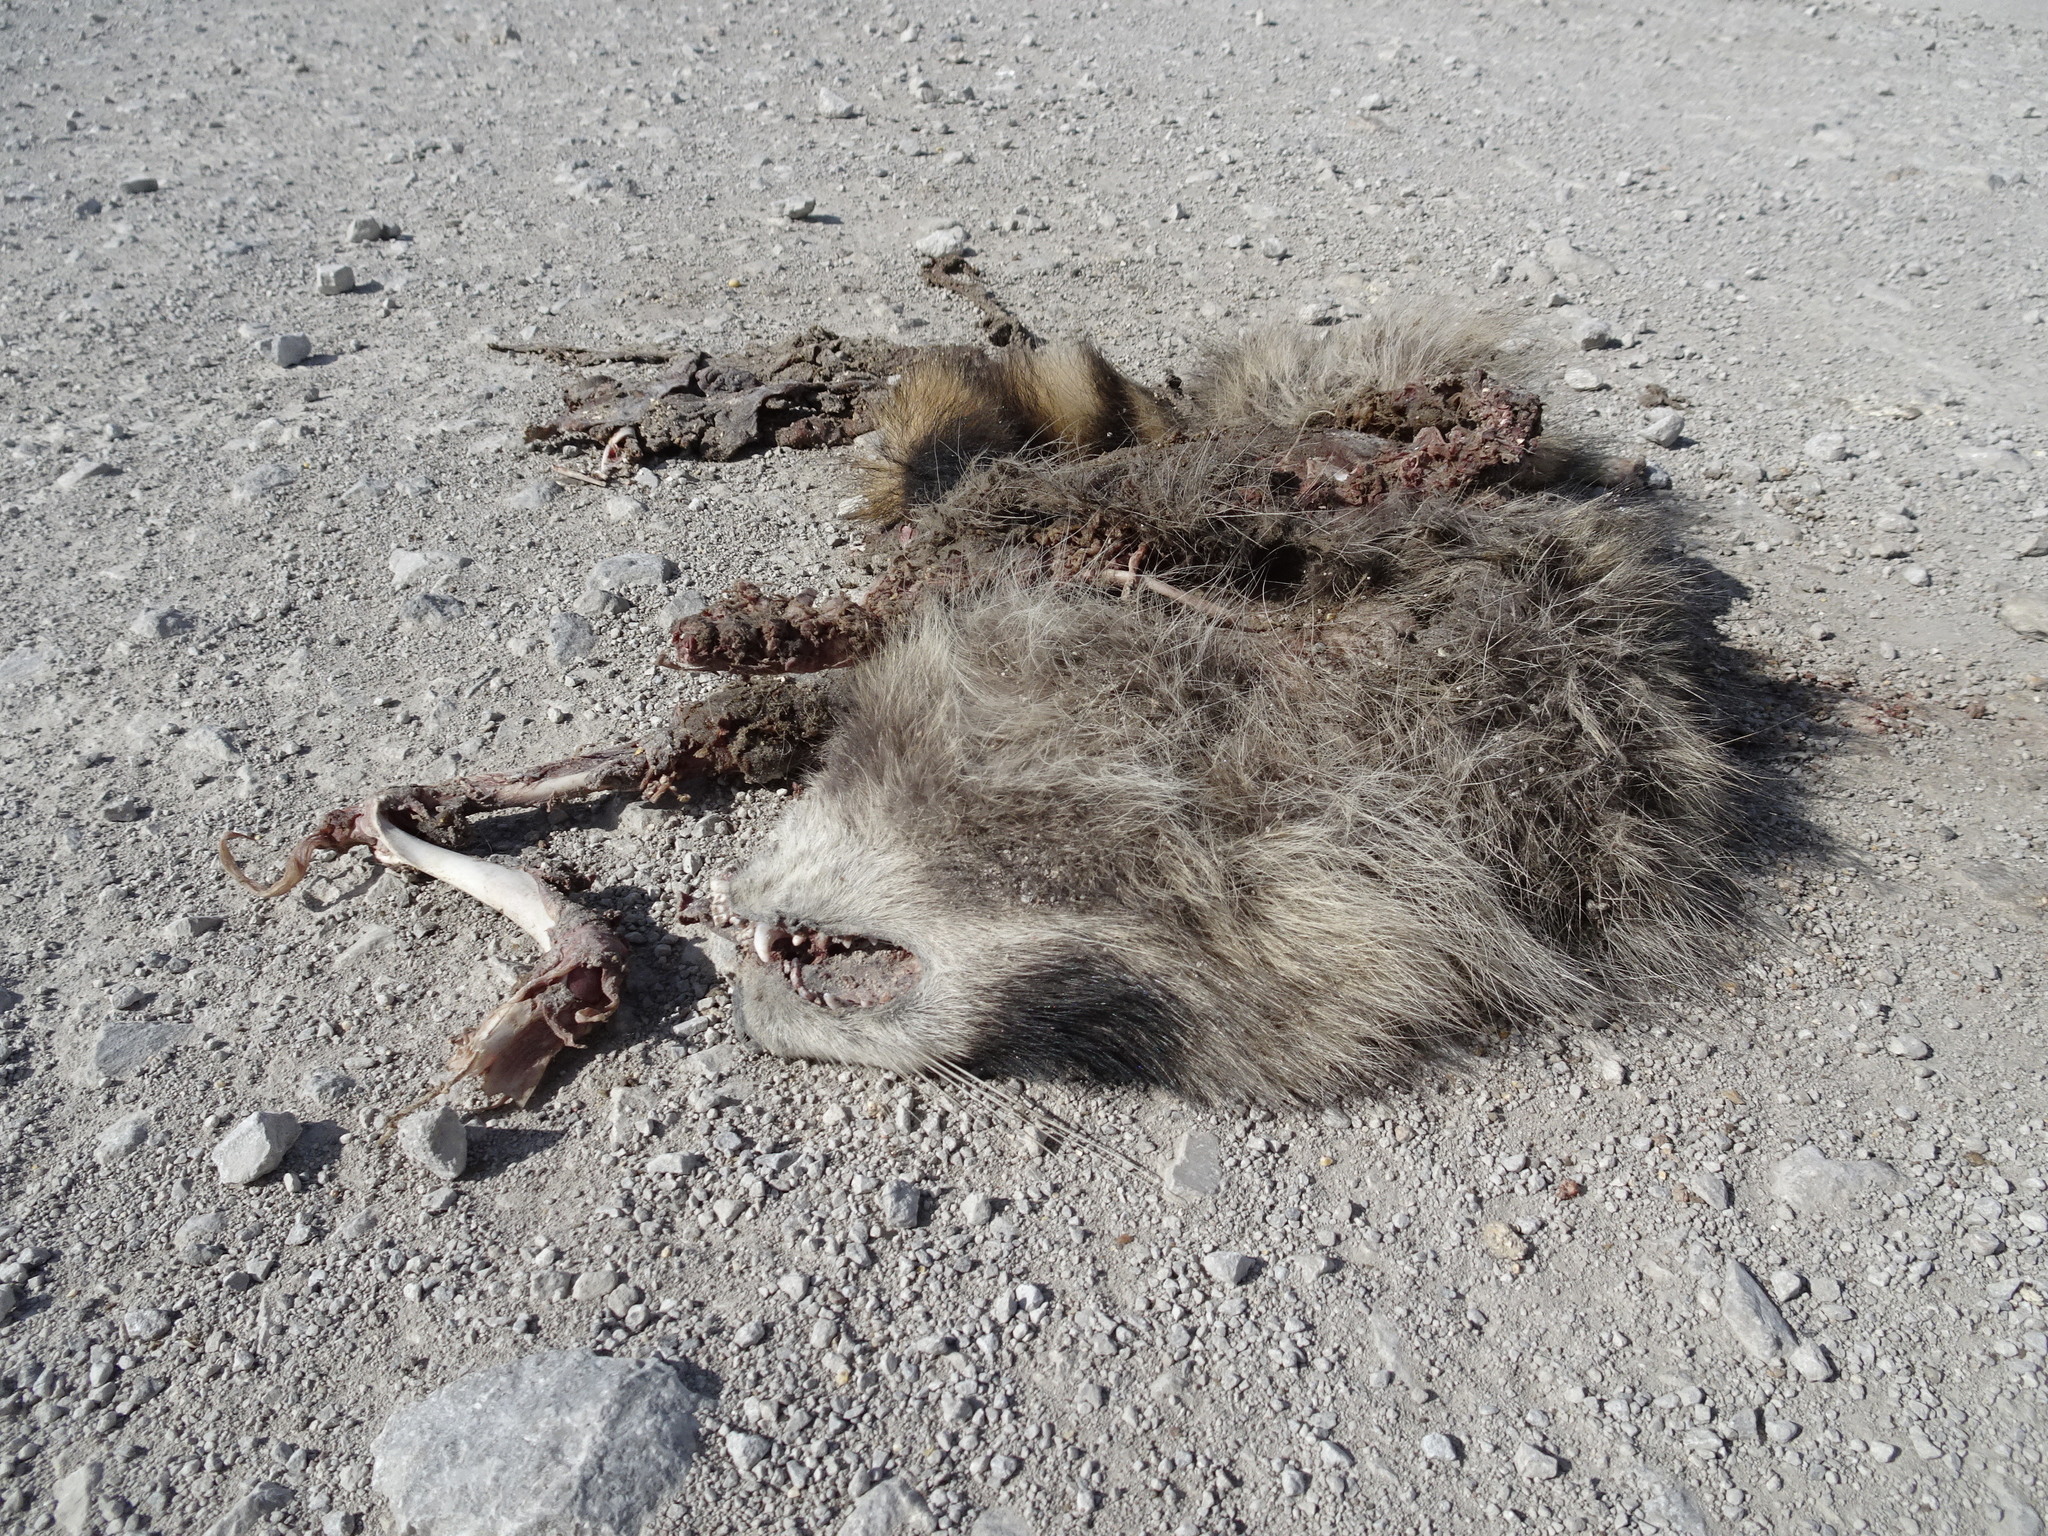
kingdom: Animalia
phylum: Chordata
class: Mammalia
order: Carnivora
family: Procyonidae
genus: Procyon
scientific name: Procyon lotor
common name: Raccoon
